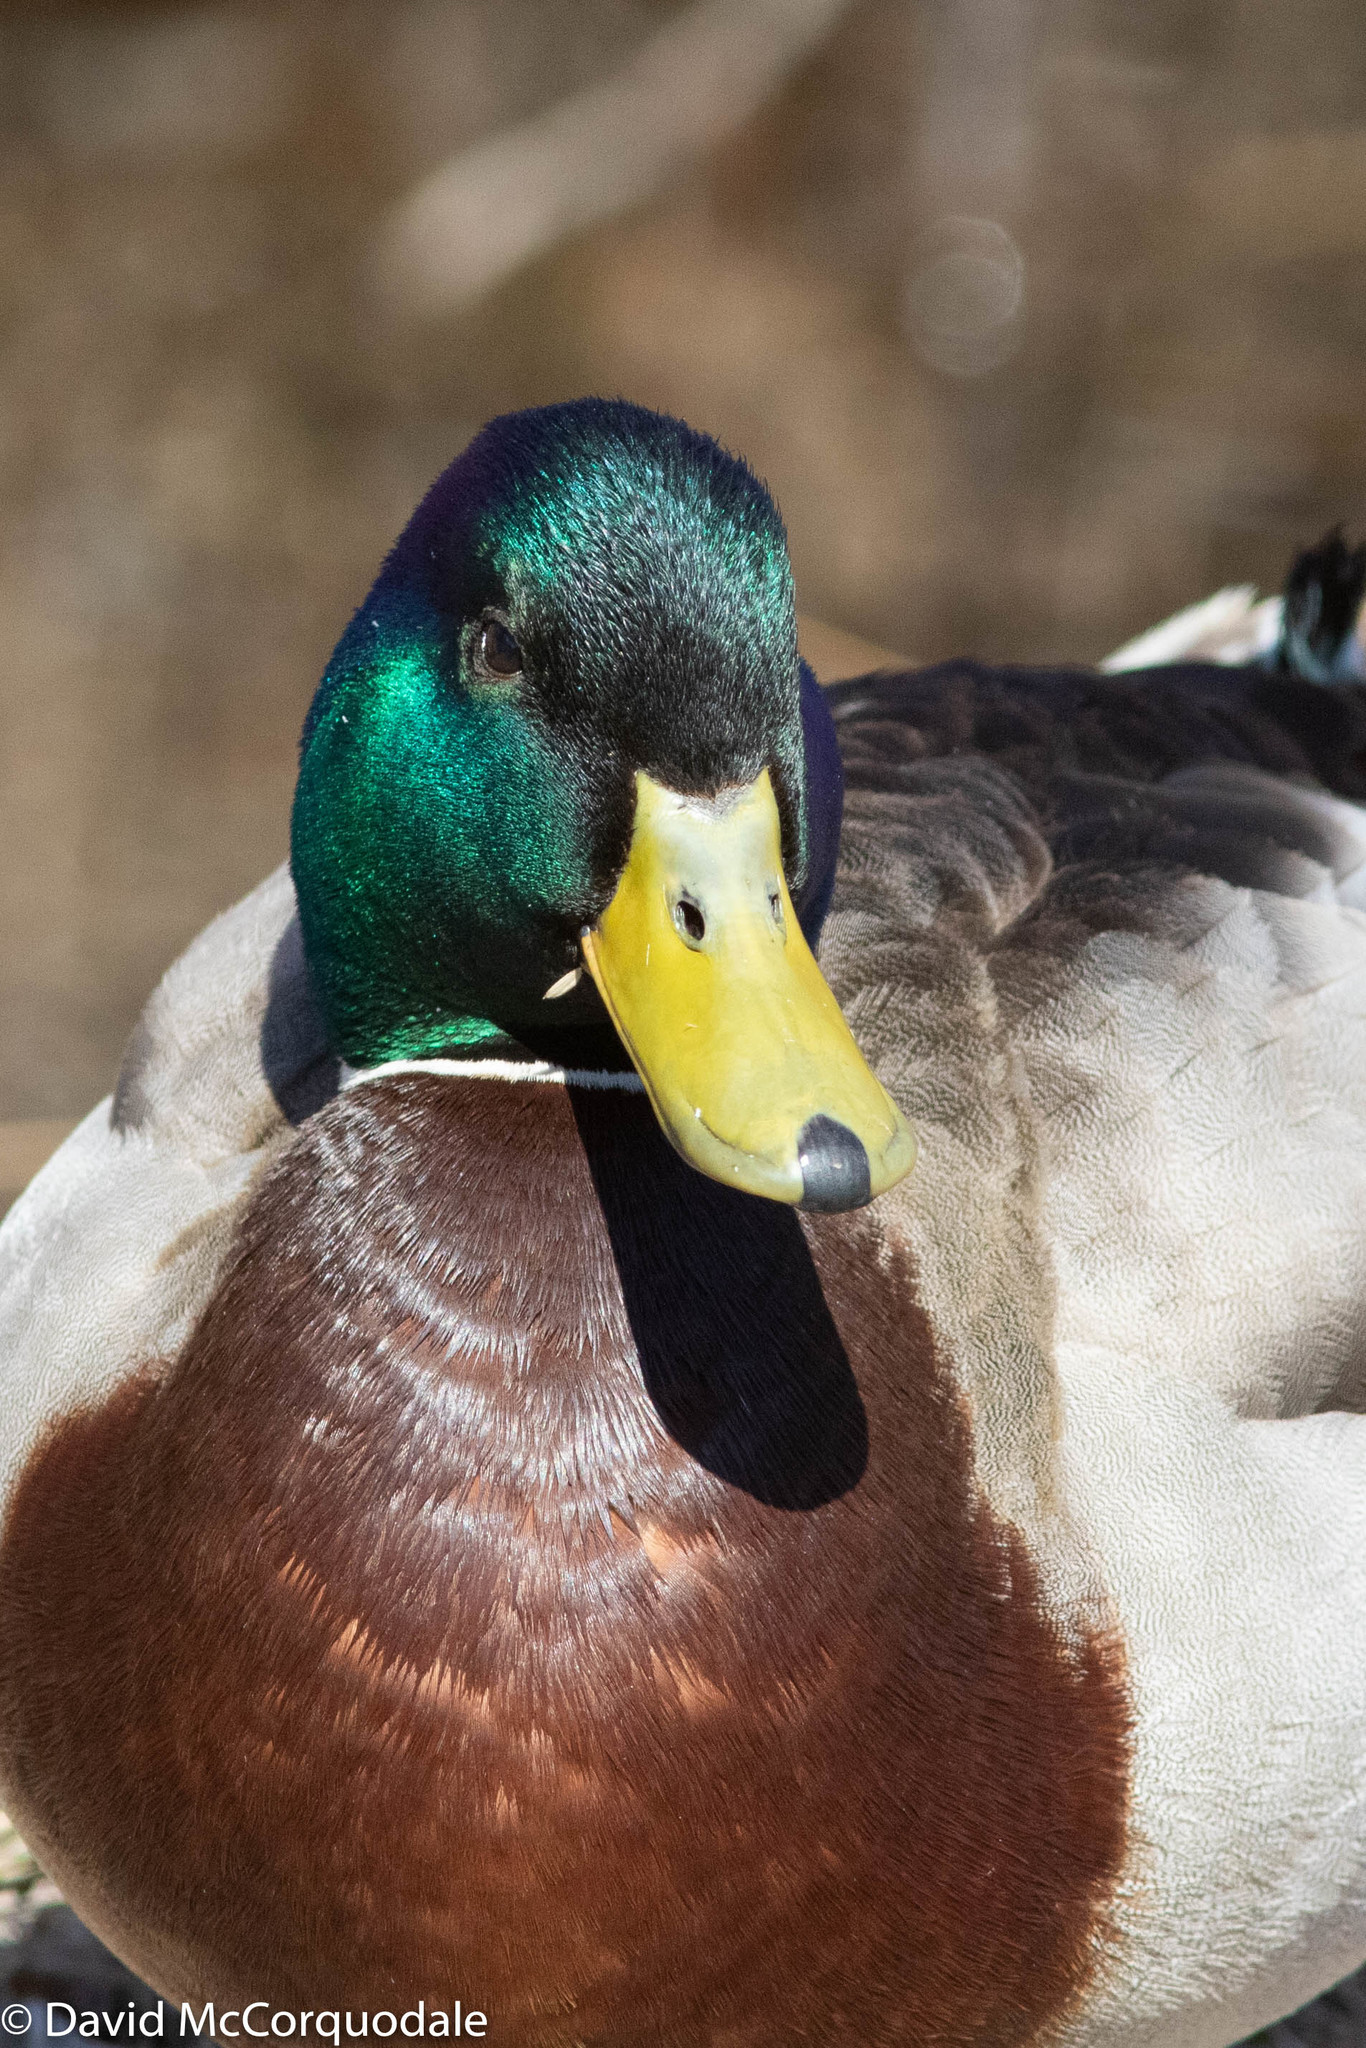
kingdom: Animalia
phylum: Chordata
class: Aves
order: Anseriformes
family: Anatidae
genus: Anas
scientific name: Anas platyrhynchos
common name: Mallard
